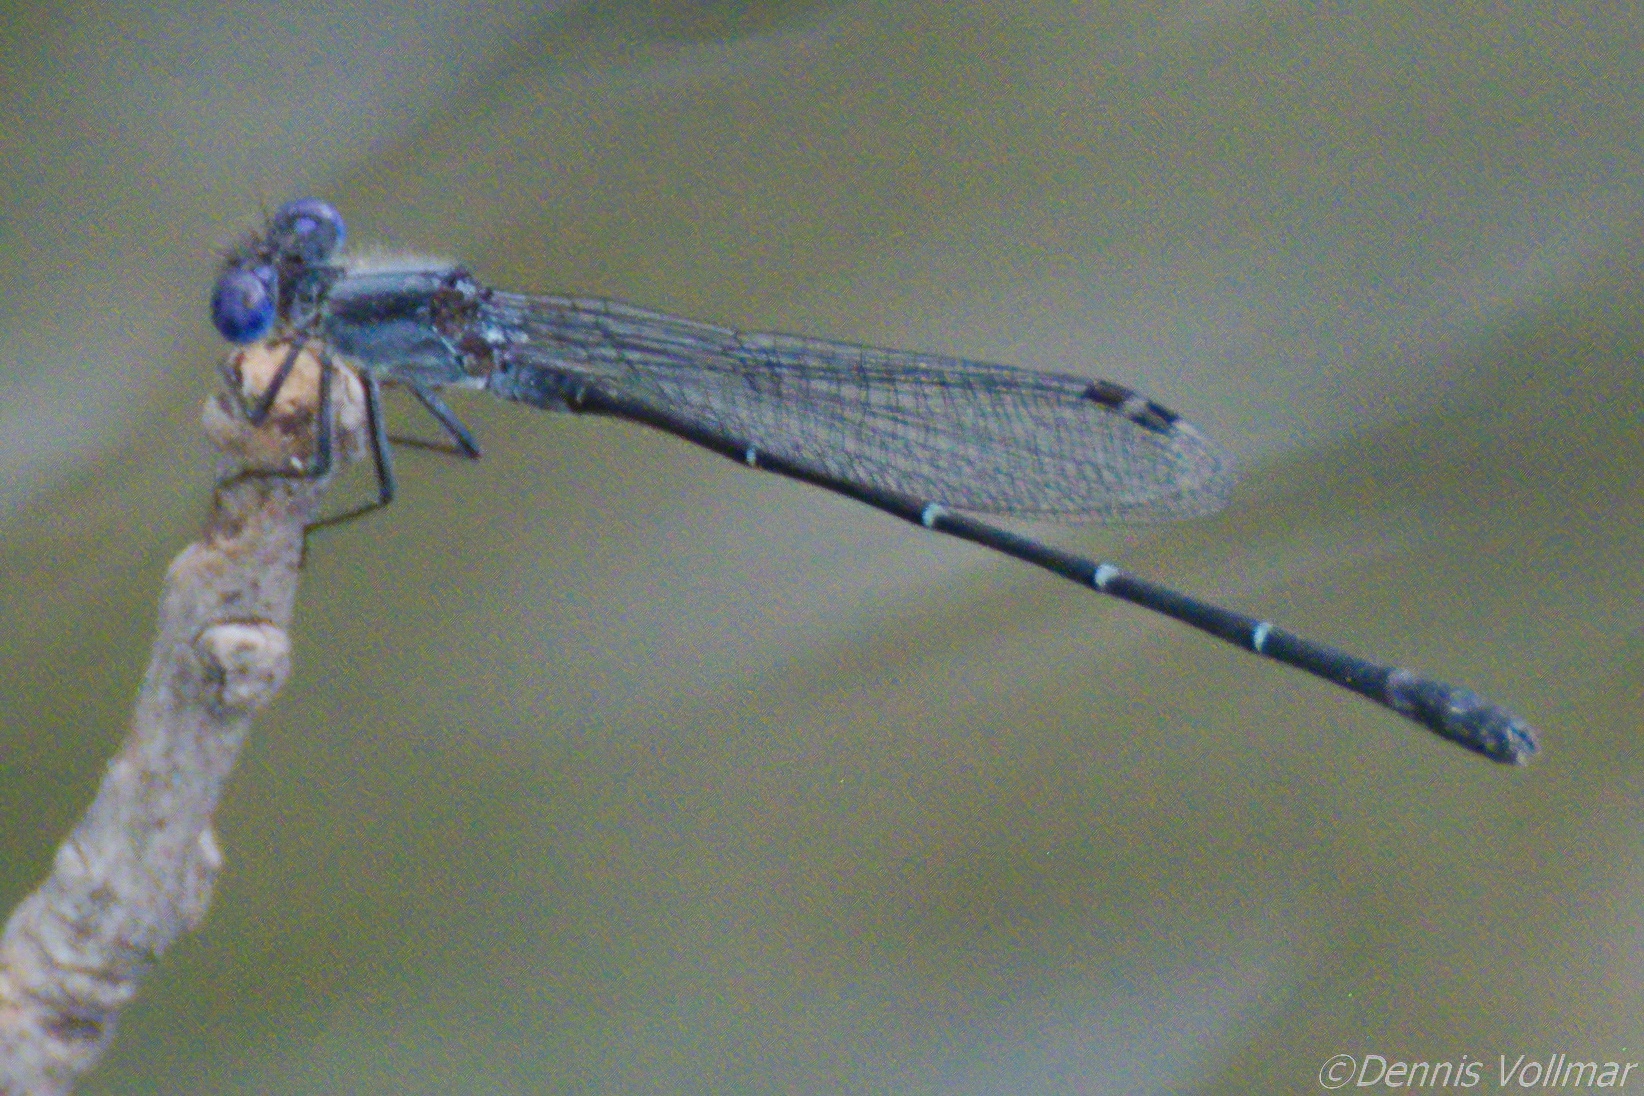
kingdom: Animalia
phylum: Arthropoda
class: Insecta
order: Odonata
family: Coenagrionidae
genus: Argia
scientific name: Argia translata
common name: Dusky dancer
